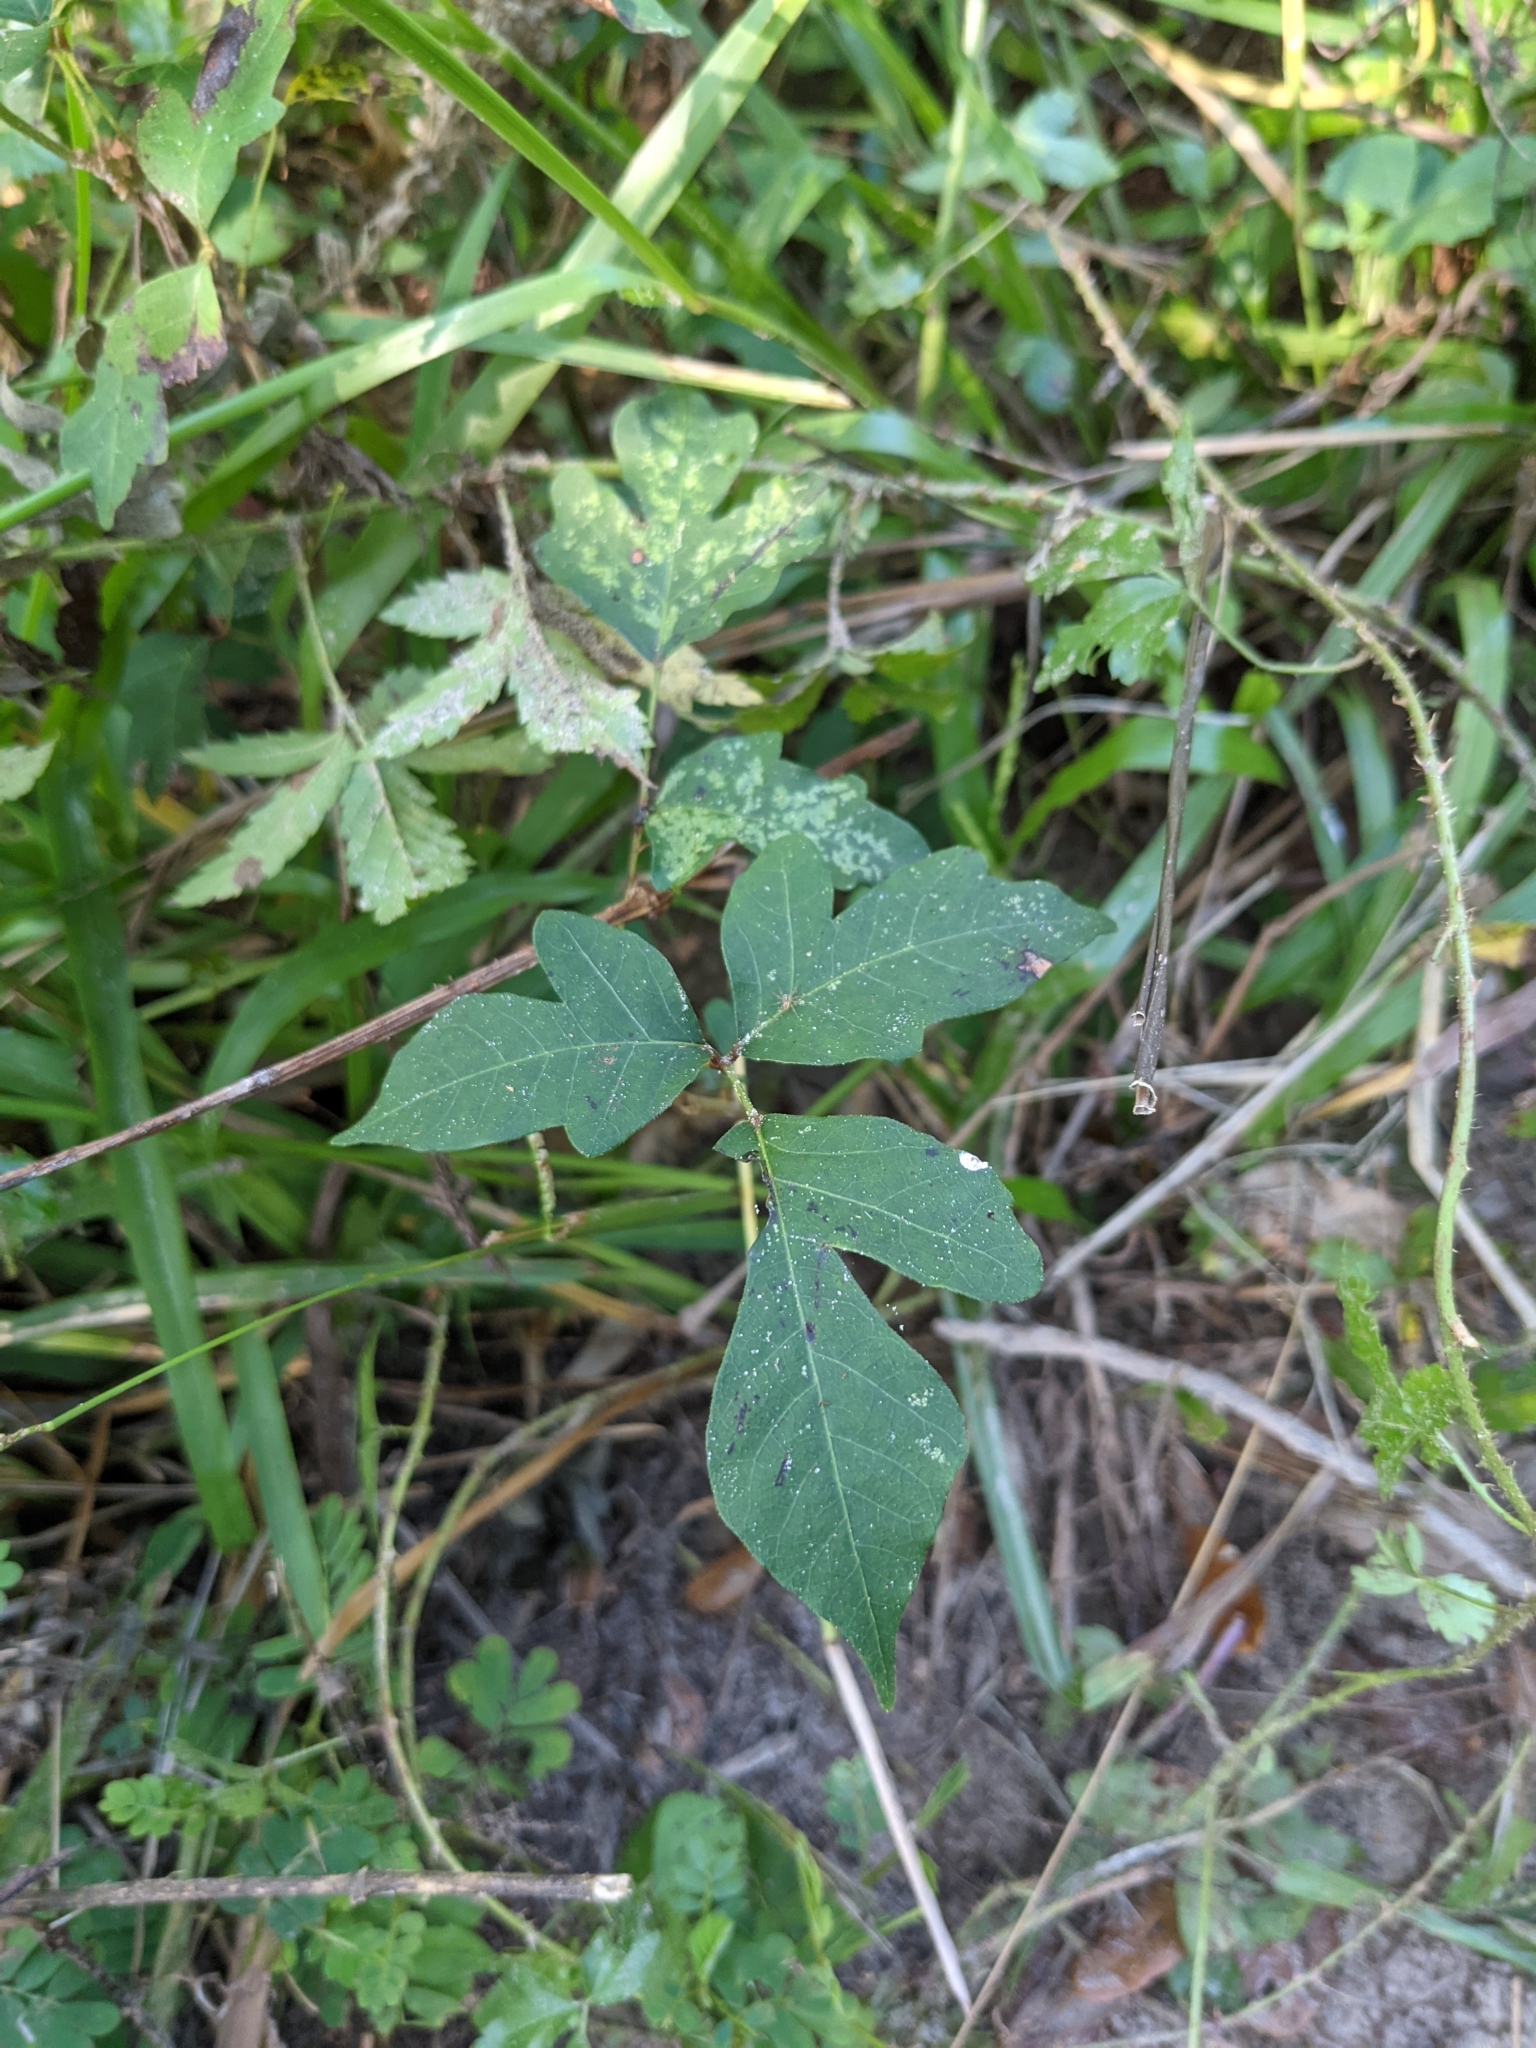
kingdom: Plantae
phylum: Tracheophyta
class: Magnoliopsida
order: Sapindales
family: Anacardiaceae
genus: Toxicodendron
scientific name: Toxicodendron radicans
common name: Poison ivy
